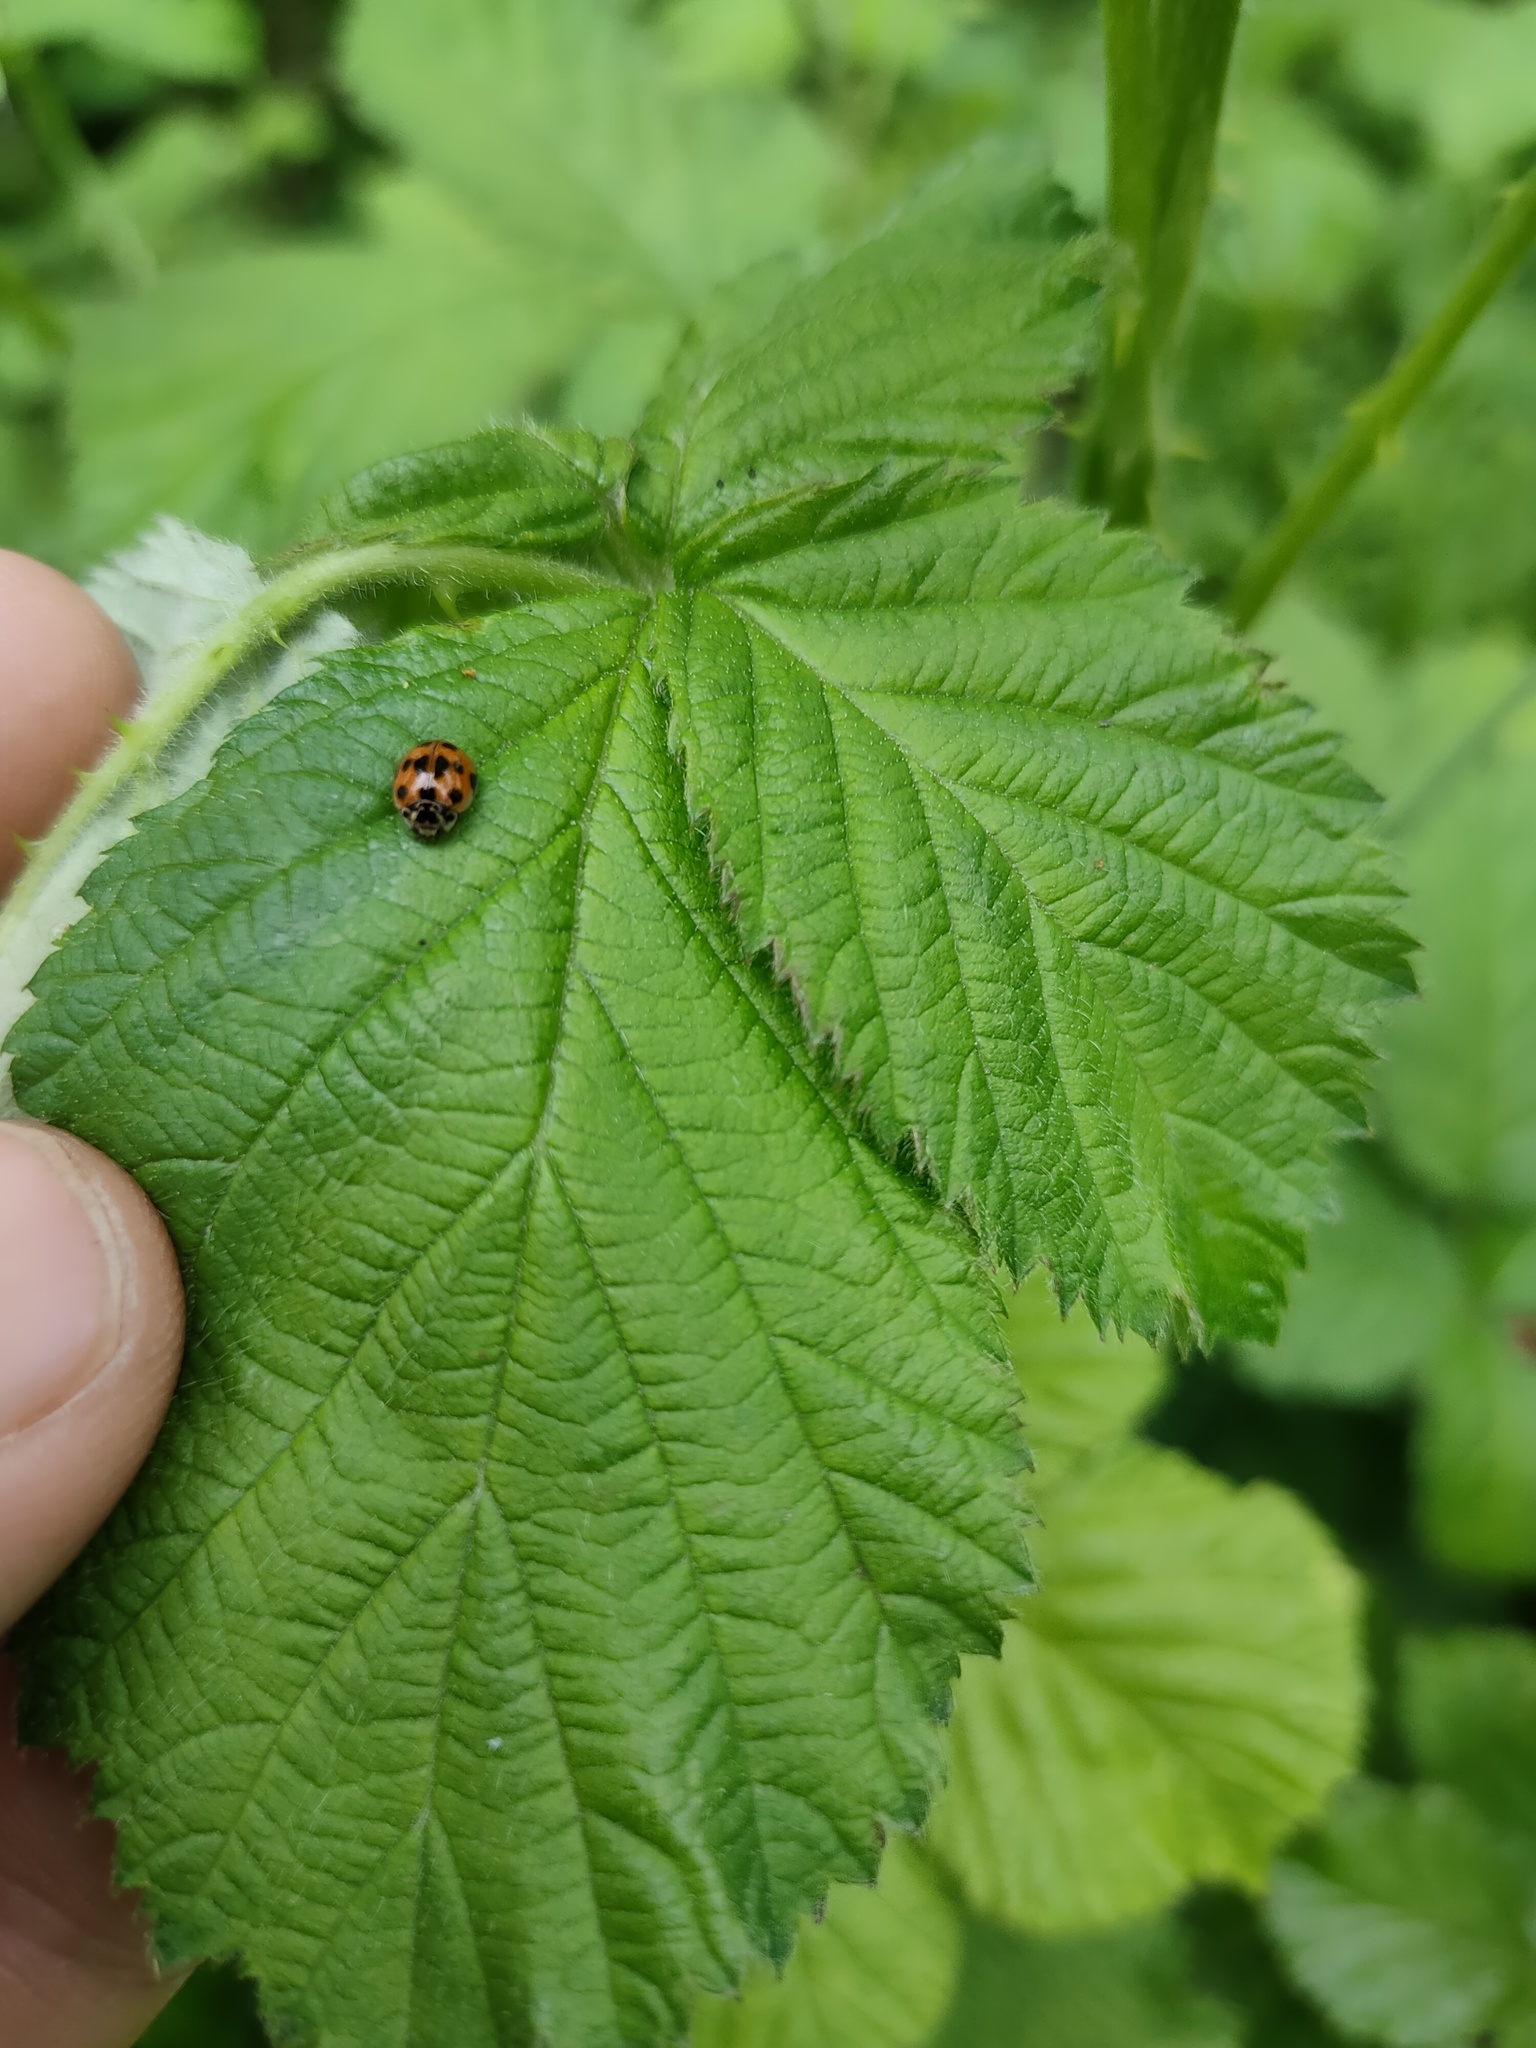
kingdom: Animalia
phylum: Arthropoda
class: Insecta
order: Coleoptera
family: Coccinellidae
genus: Adalia
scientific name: Adalia decempunctata
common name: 10-spot ladybird
